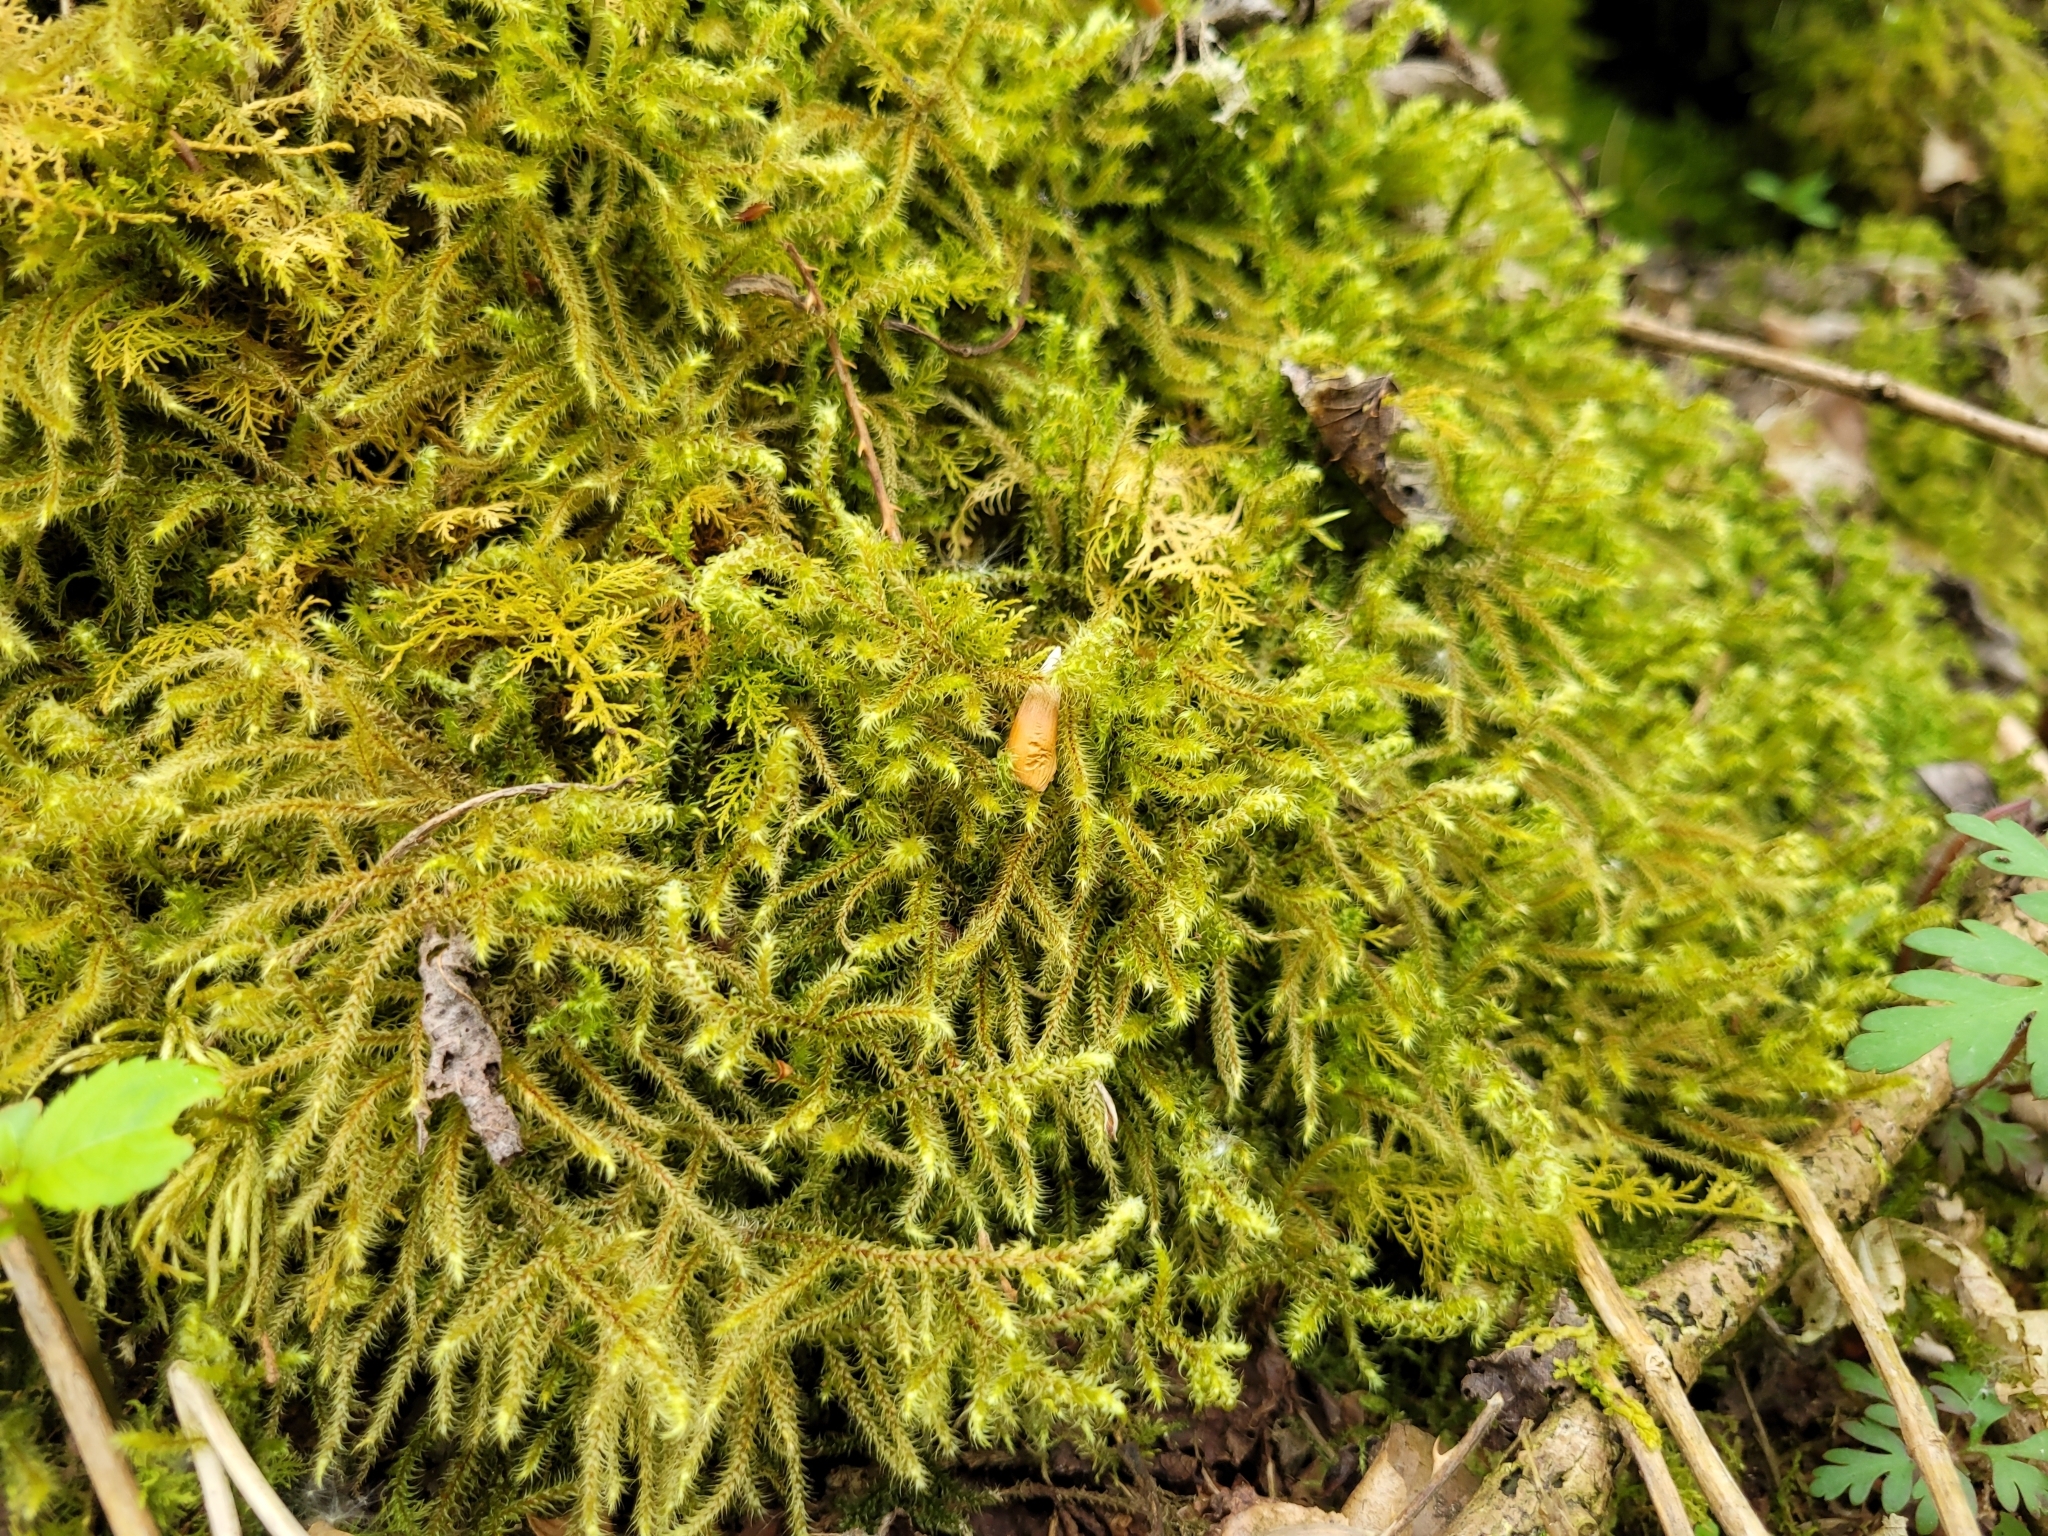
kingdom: Plantae
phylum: Bryophyta
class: Bryopsida
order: Hypnales
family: Hylocomiaceae
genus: Rhytidiadelphus
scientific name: Rhytidiadelphus loreus
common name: Lanky moss
